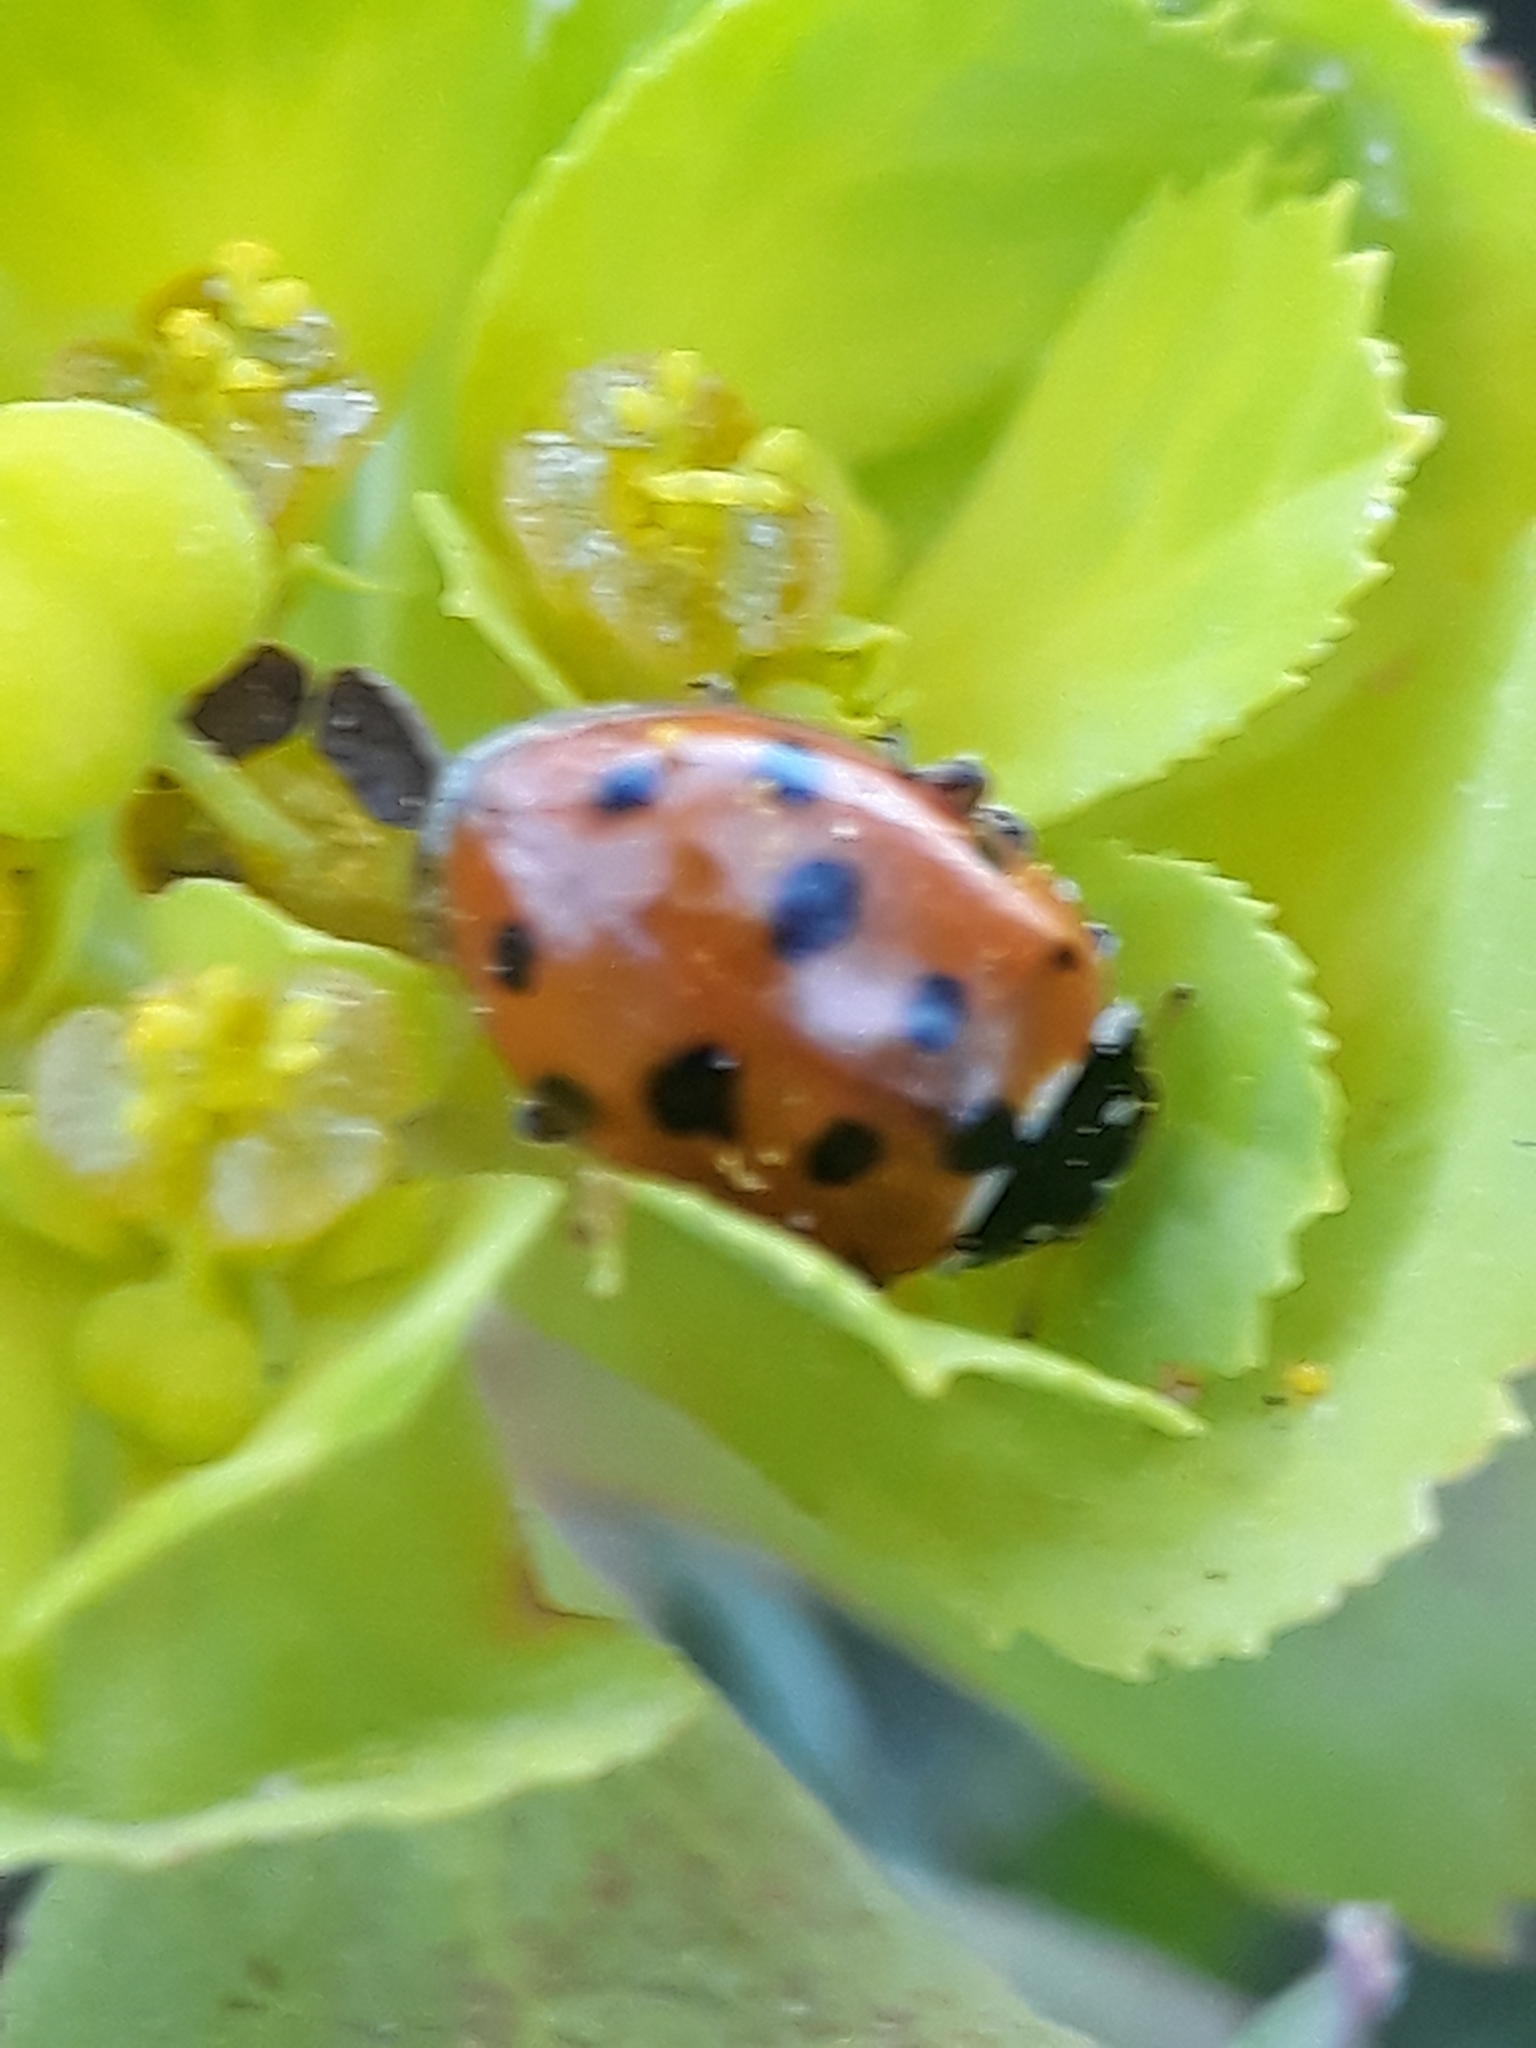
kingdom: Animalia
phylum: Arthropoda
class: Insecta
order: Coleoptera
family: Coccinellidae
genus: Hippodamia
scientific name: Hippodamia variegata
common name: Ladybird beetle
